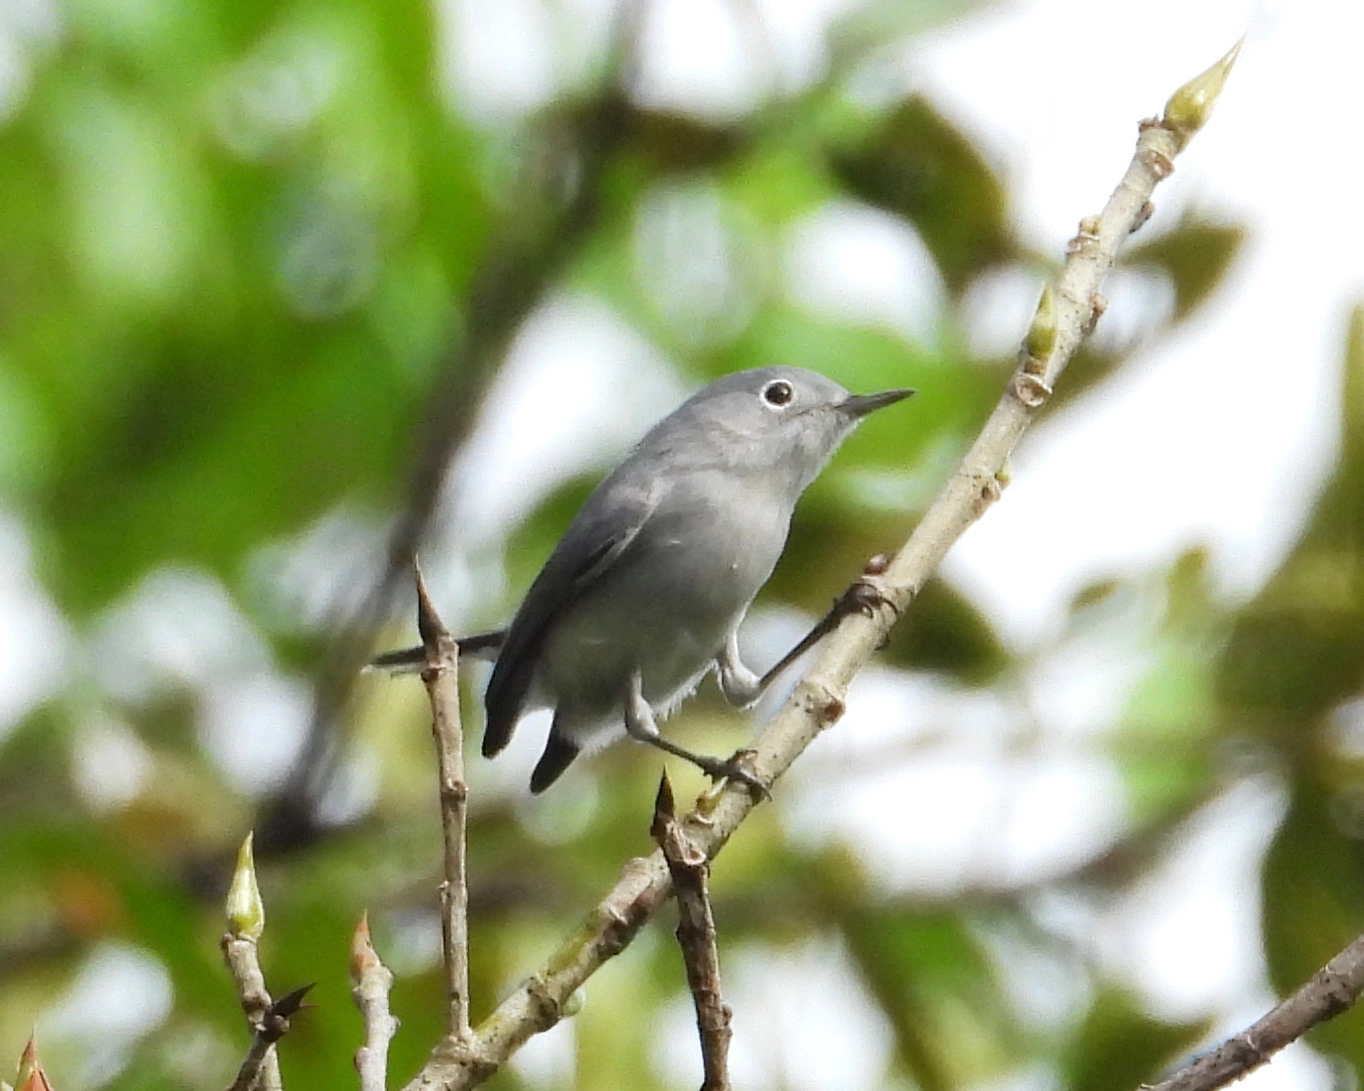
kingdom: Animalia
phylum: Chordata
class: Aves
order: Passeriformes
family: Polioptilidae
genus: Polioptila
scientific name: Polioptila caerulea
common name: Blue-gray gnatcatcher
